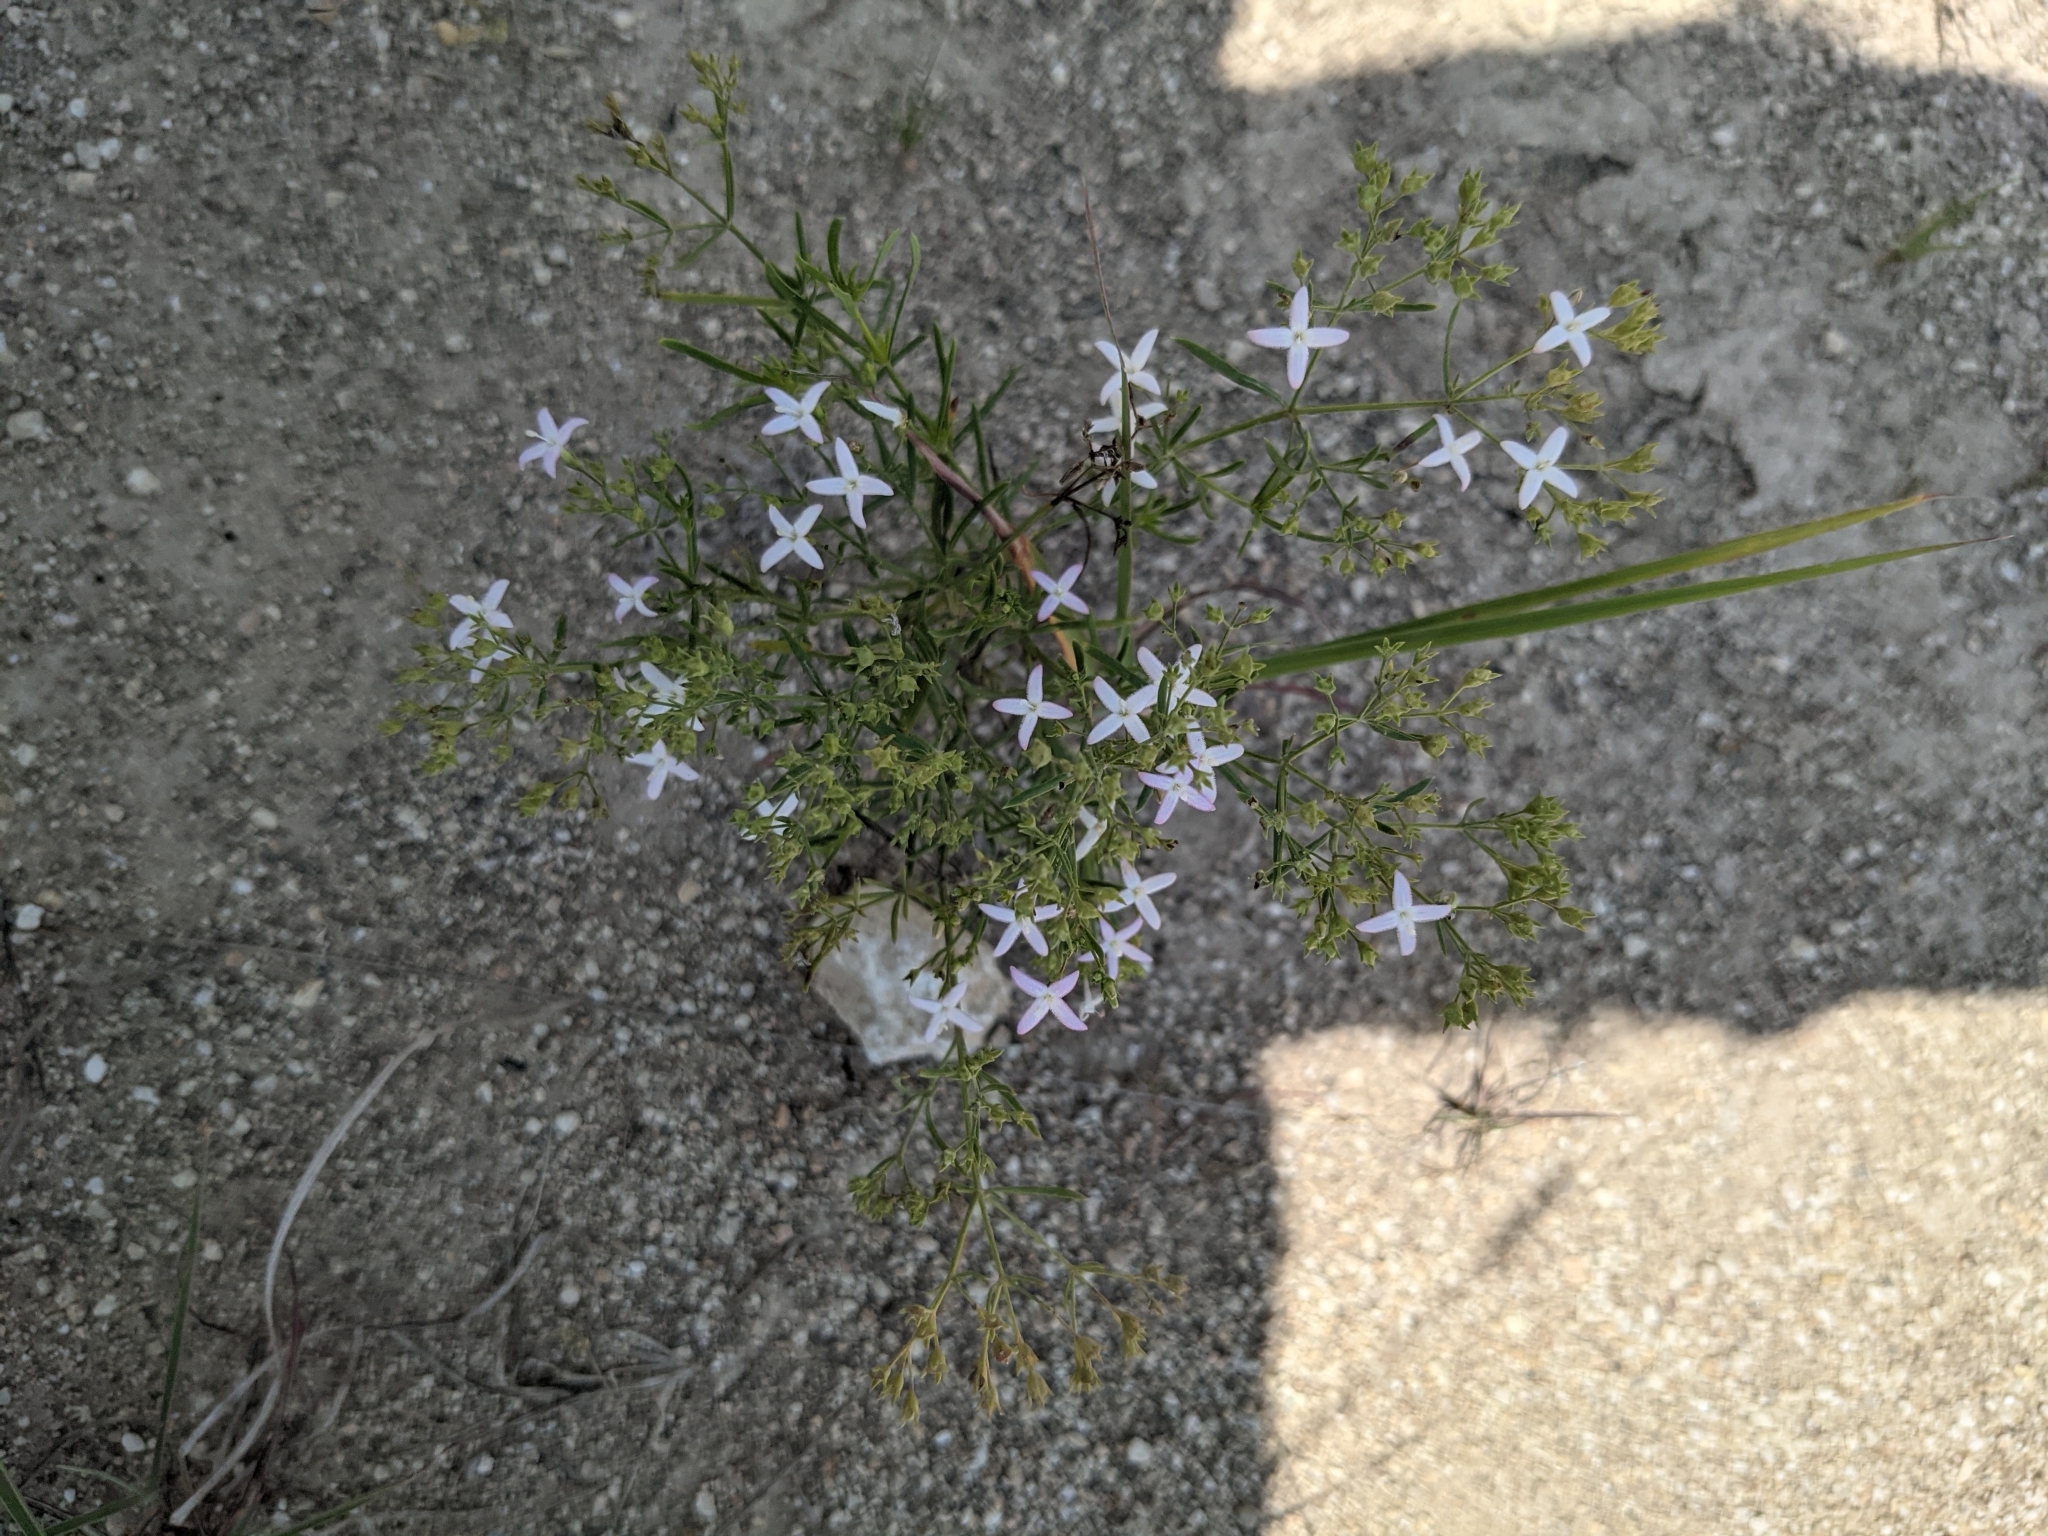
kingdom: Plantae
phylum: Tracheophyta
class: Magnoliopsida
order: Gentianales
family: Rubiaceae
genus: Stenaria
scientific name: Stenaria nigricans
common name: Diamondflowers
